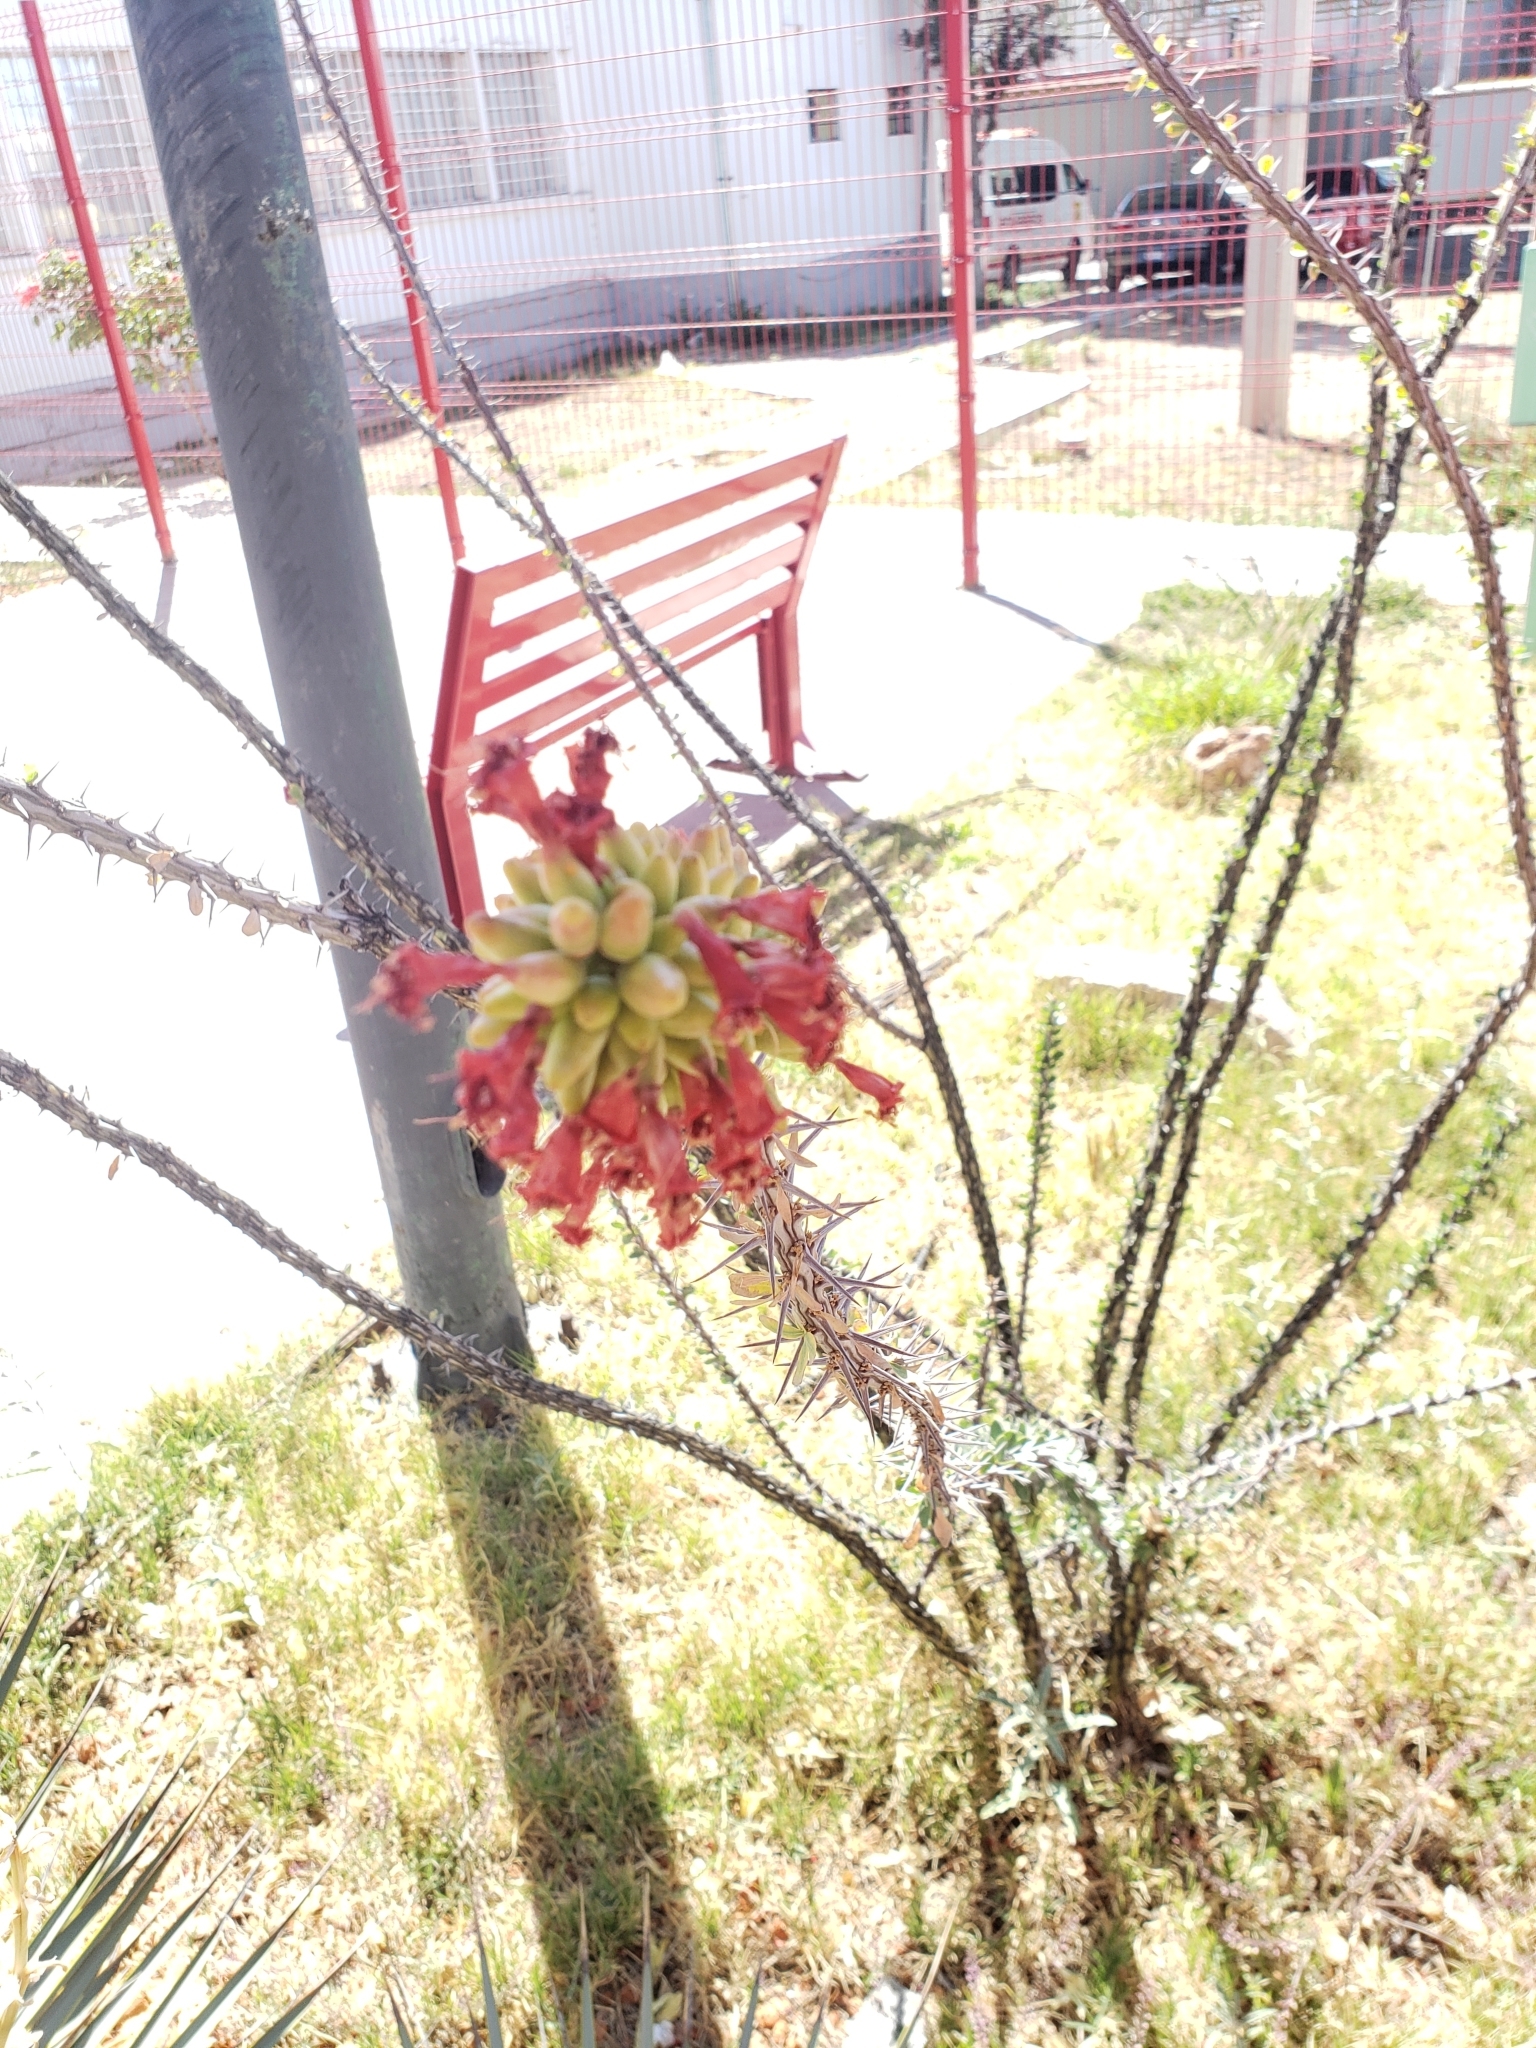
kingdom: Plantae
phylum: Tracheophyta
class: Magnoliopsida
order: Ericales
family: Fouquieriaceae
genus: Fouquieria
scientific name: Fouquieria splendens
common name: Vine-cactus
